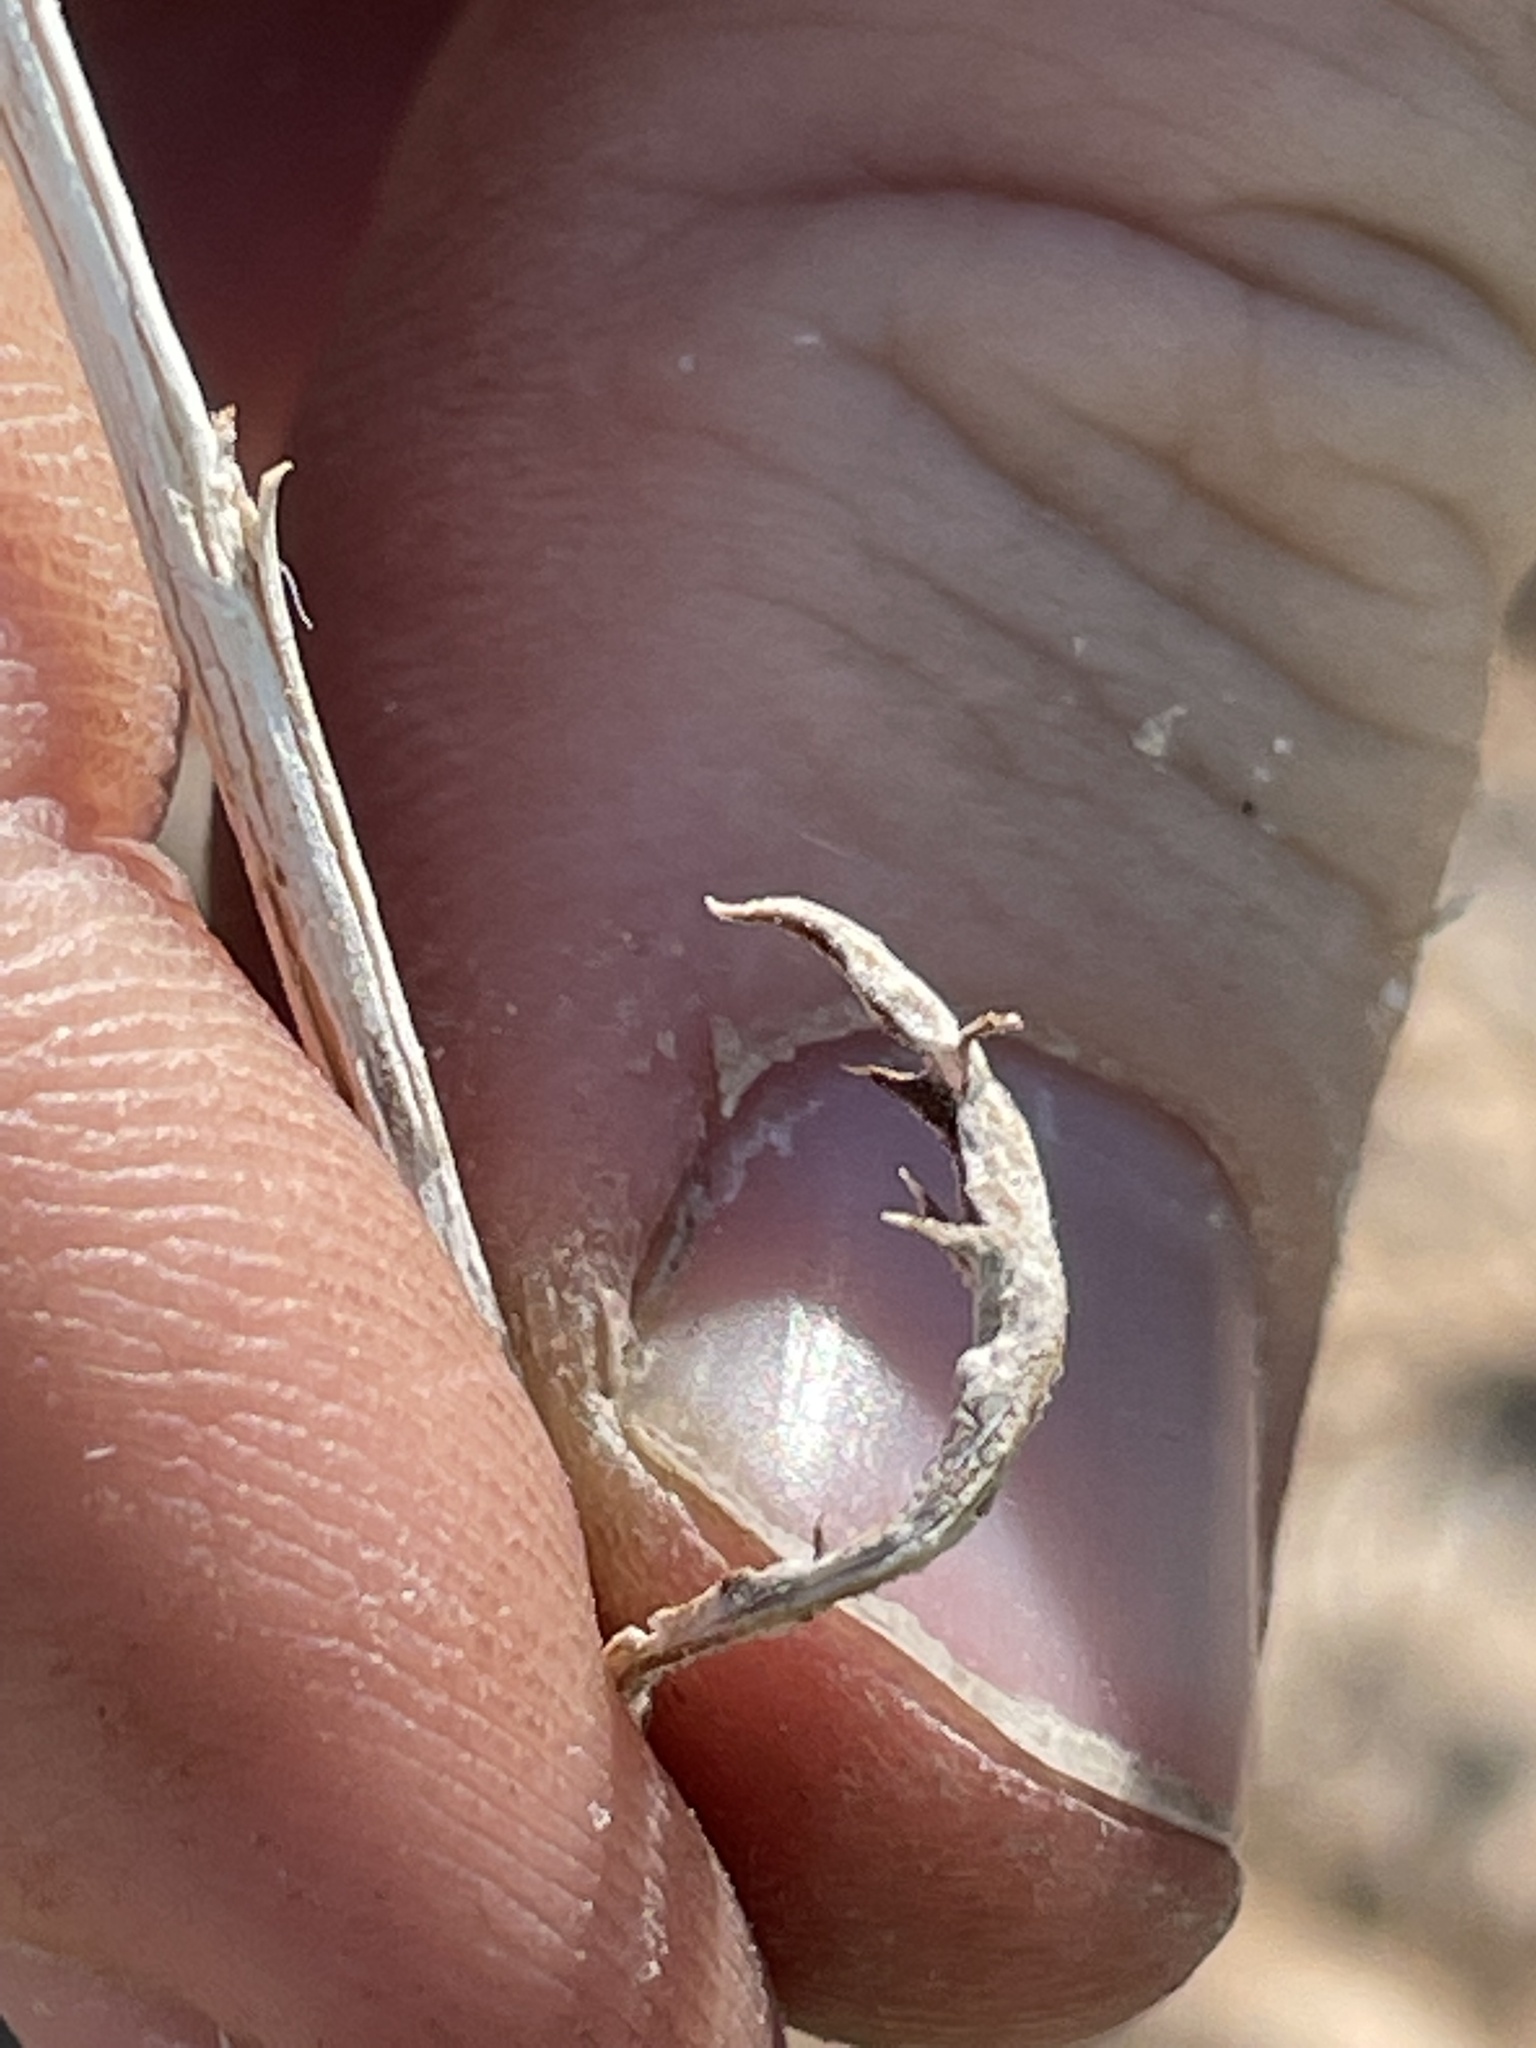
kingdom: Plantae
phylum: Tracheophyta
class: Magnoliopsida
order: Asterales
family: Asteraceae
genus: Xylorhiza
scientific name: Xylorhiza tortifolia
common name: Hurt-leaf woody-aster
